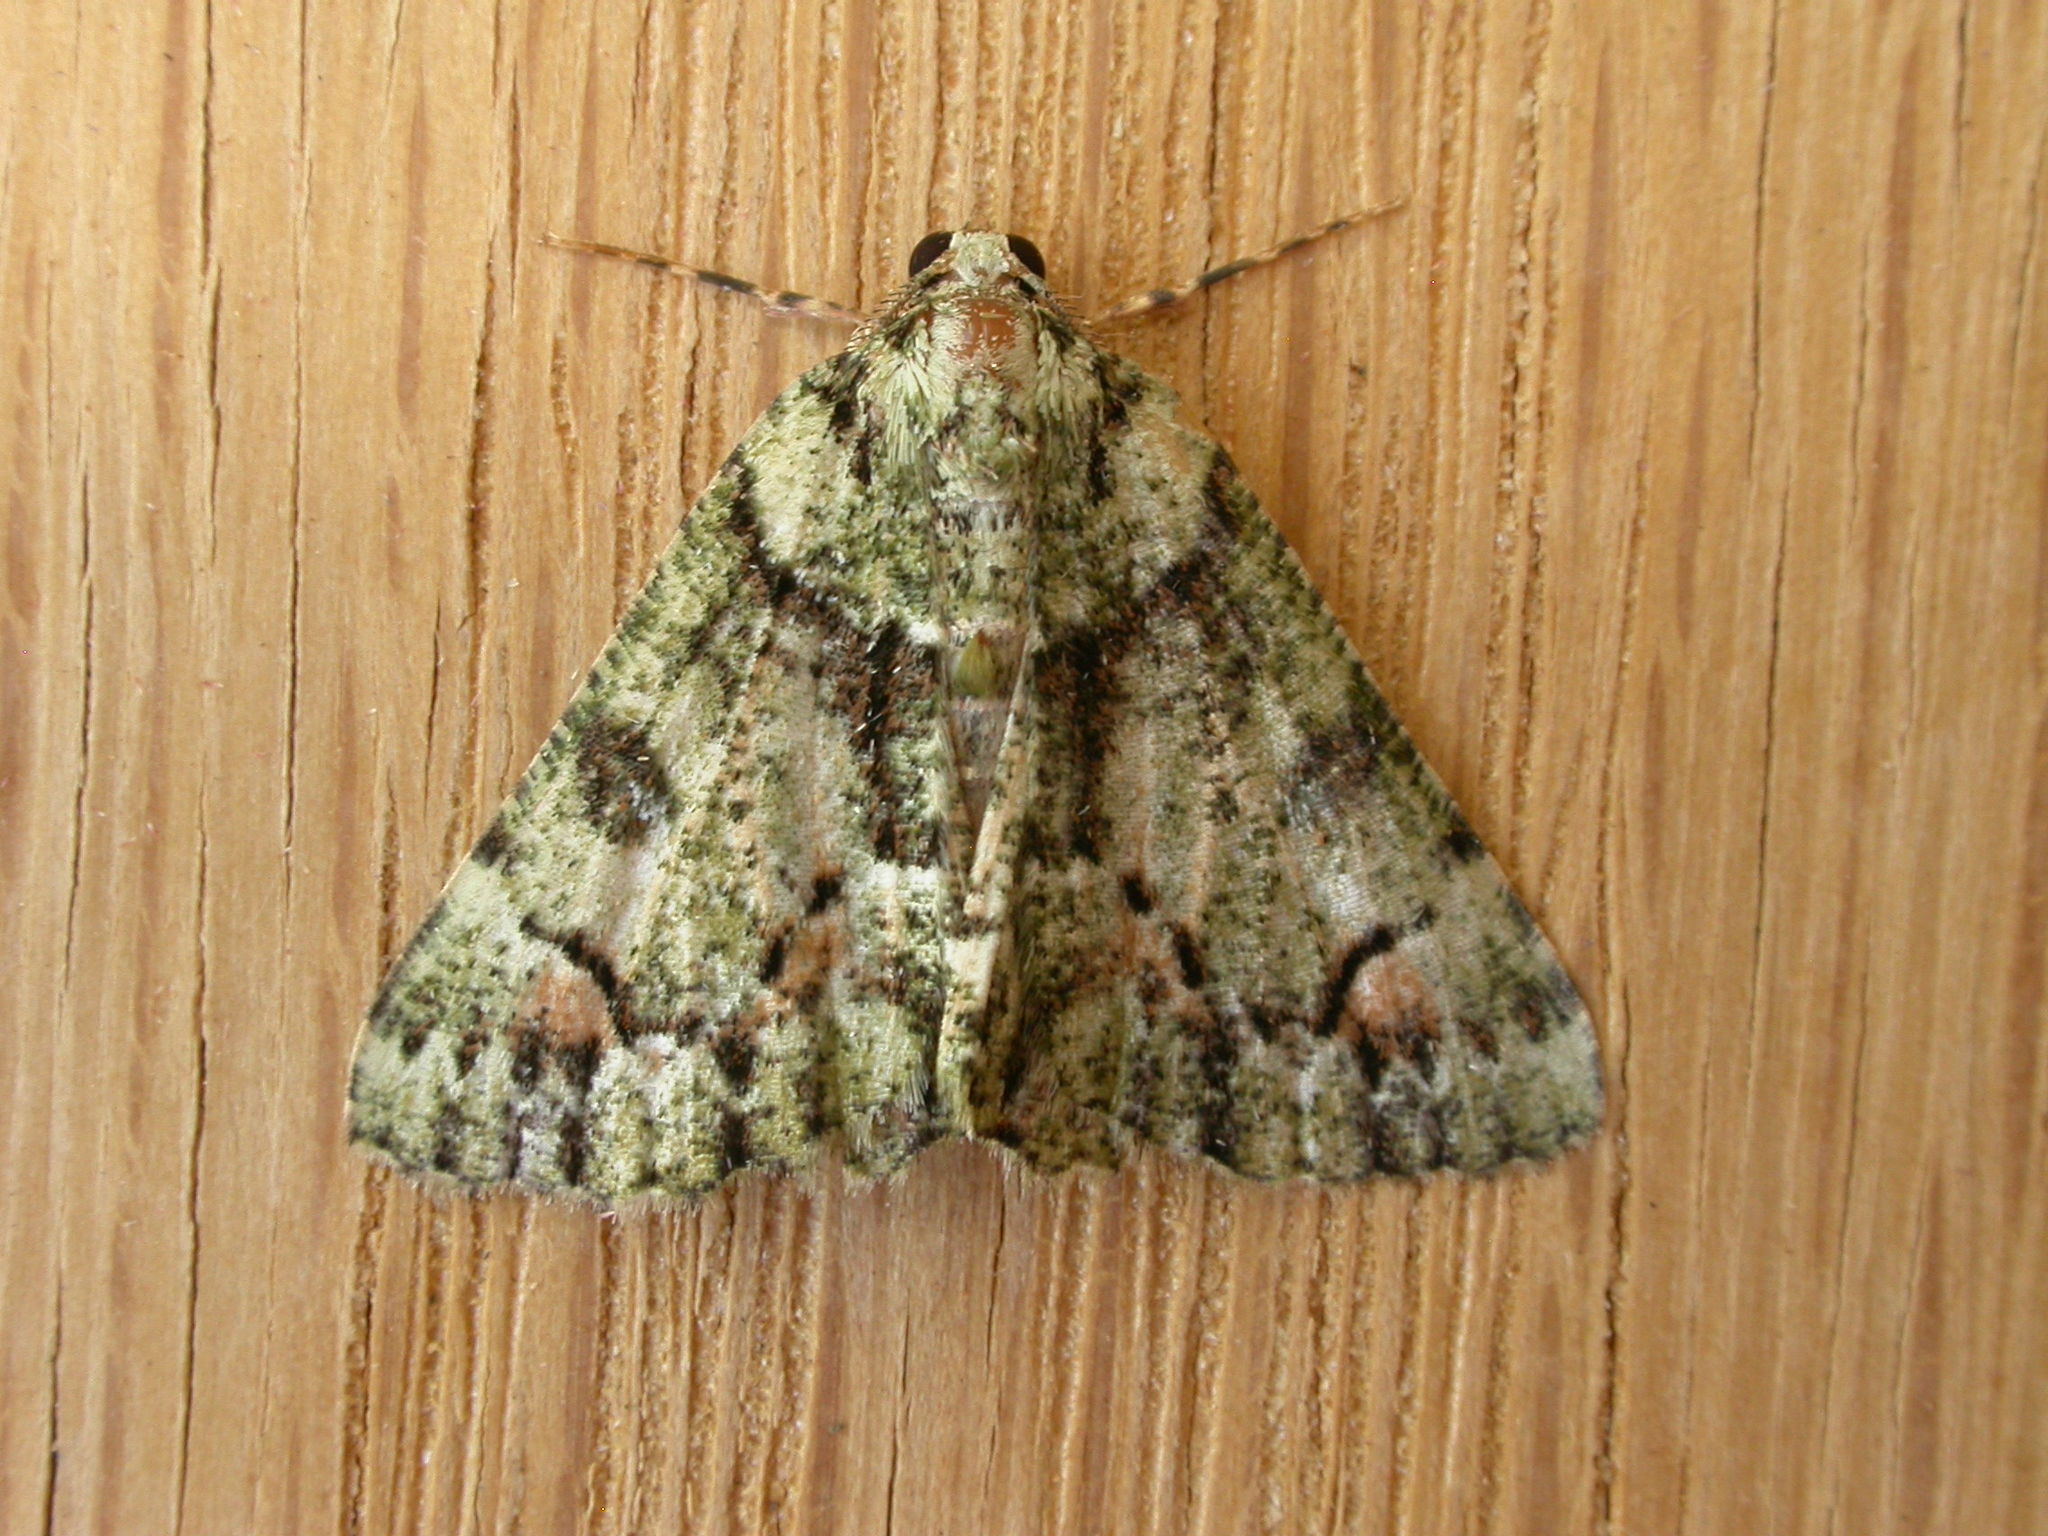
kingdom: Animalia
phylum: Arthropoda
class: Insecta
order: Lepidoptera
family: Geometridae
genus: Aeolochroma
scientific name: Aeolochroma metarhodata
